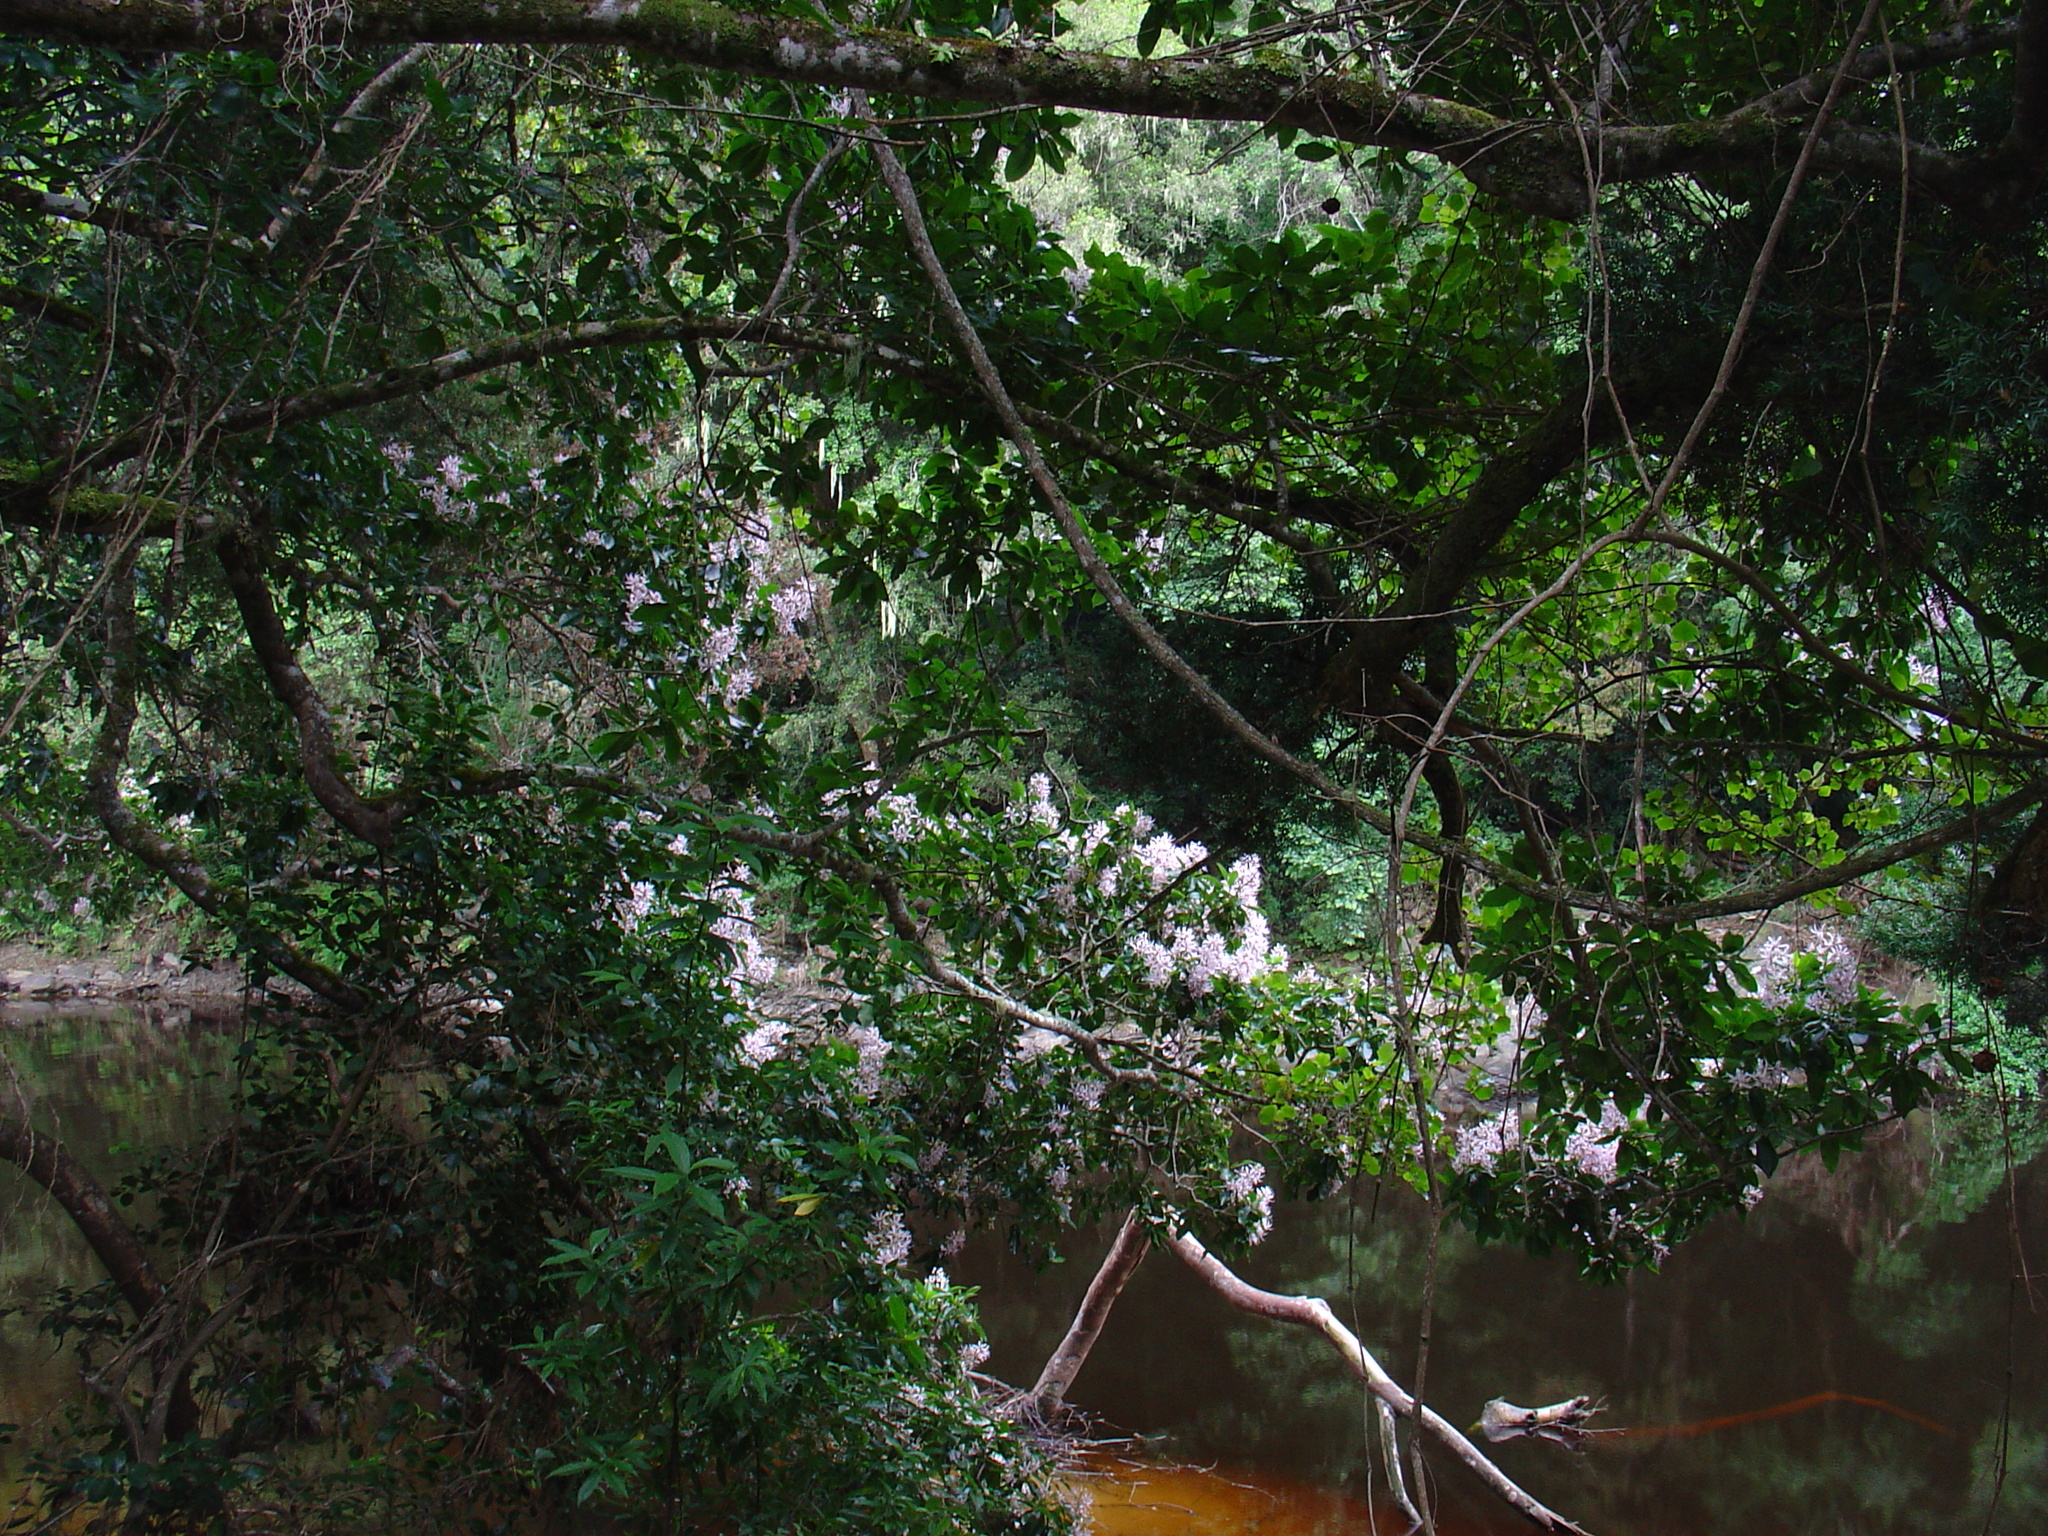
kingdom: Plantae
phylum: Tracheophyta
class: Magnoliopsida
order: Sapindales
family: Rutaceae
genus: Calodendrum
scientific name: Calodendrum capense
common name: Cape chestnut
